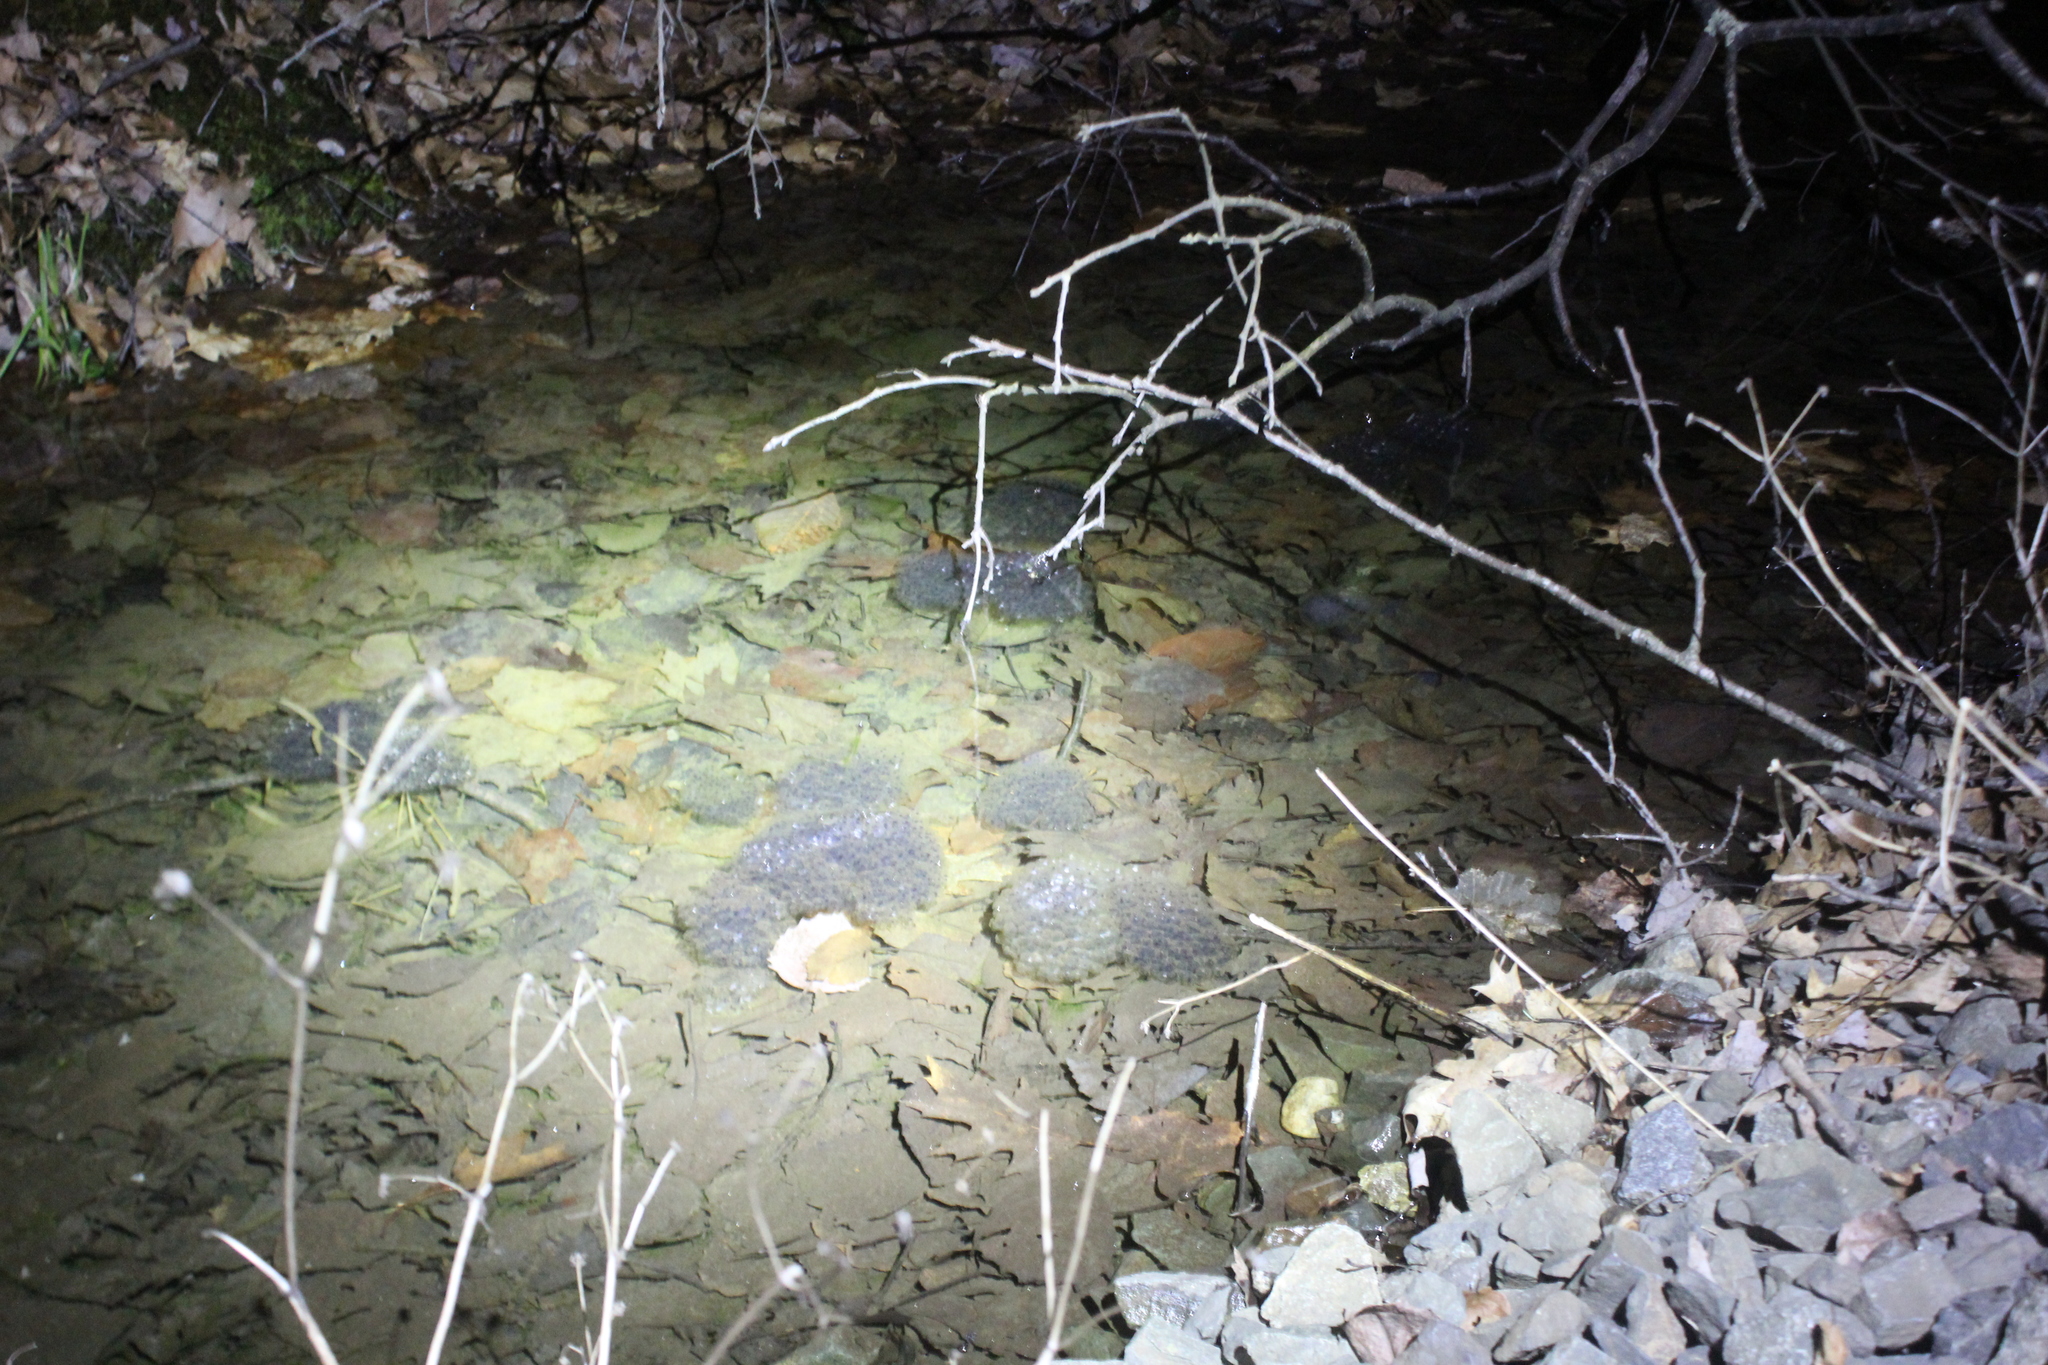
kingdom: Animalia
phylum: Chordata
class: Amphibia
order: Anura
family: Ranidae
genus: Lithobates
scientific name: Lithobates sylvaticus
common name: Wood frog
